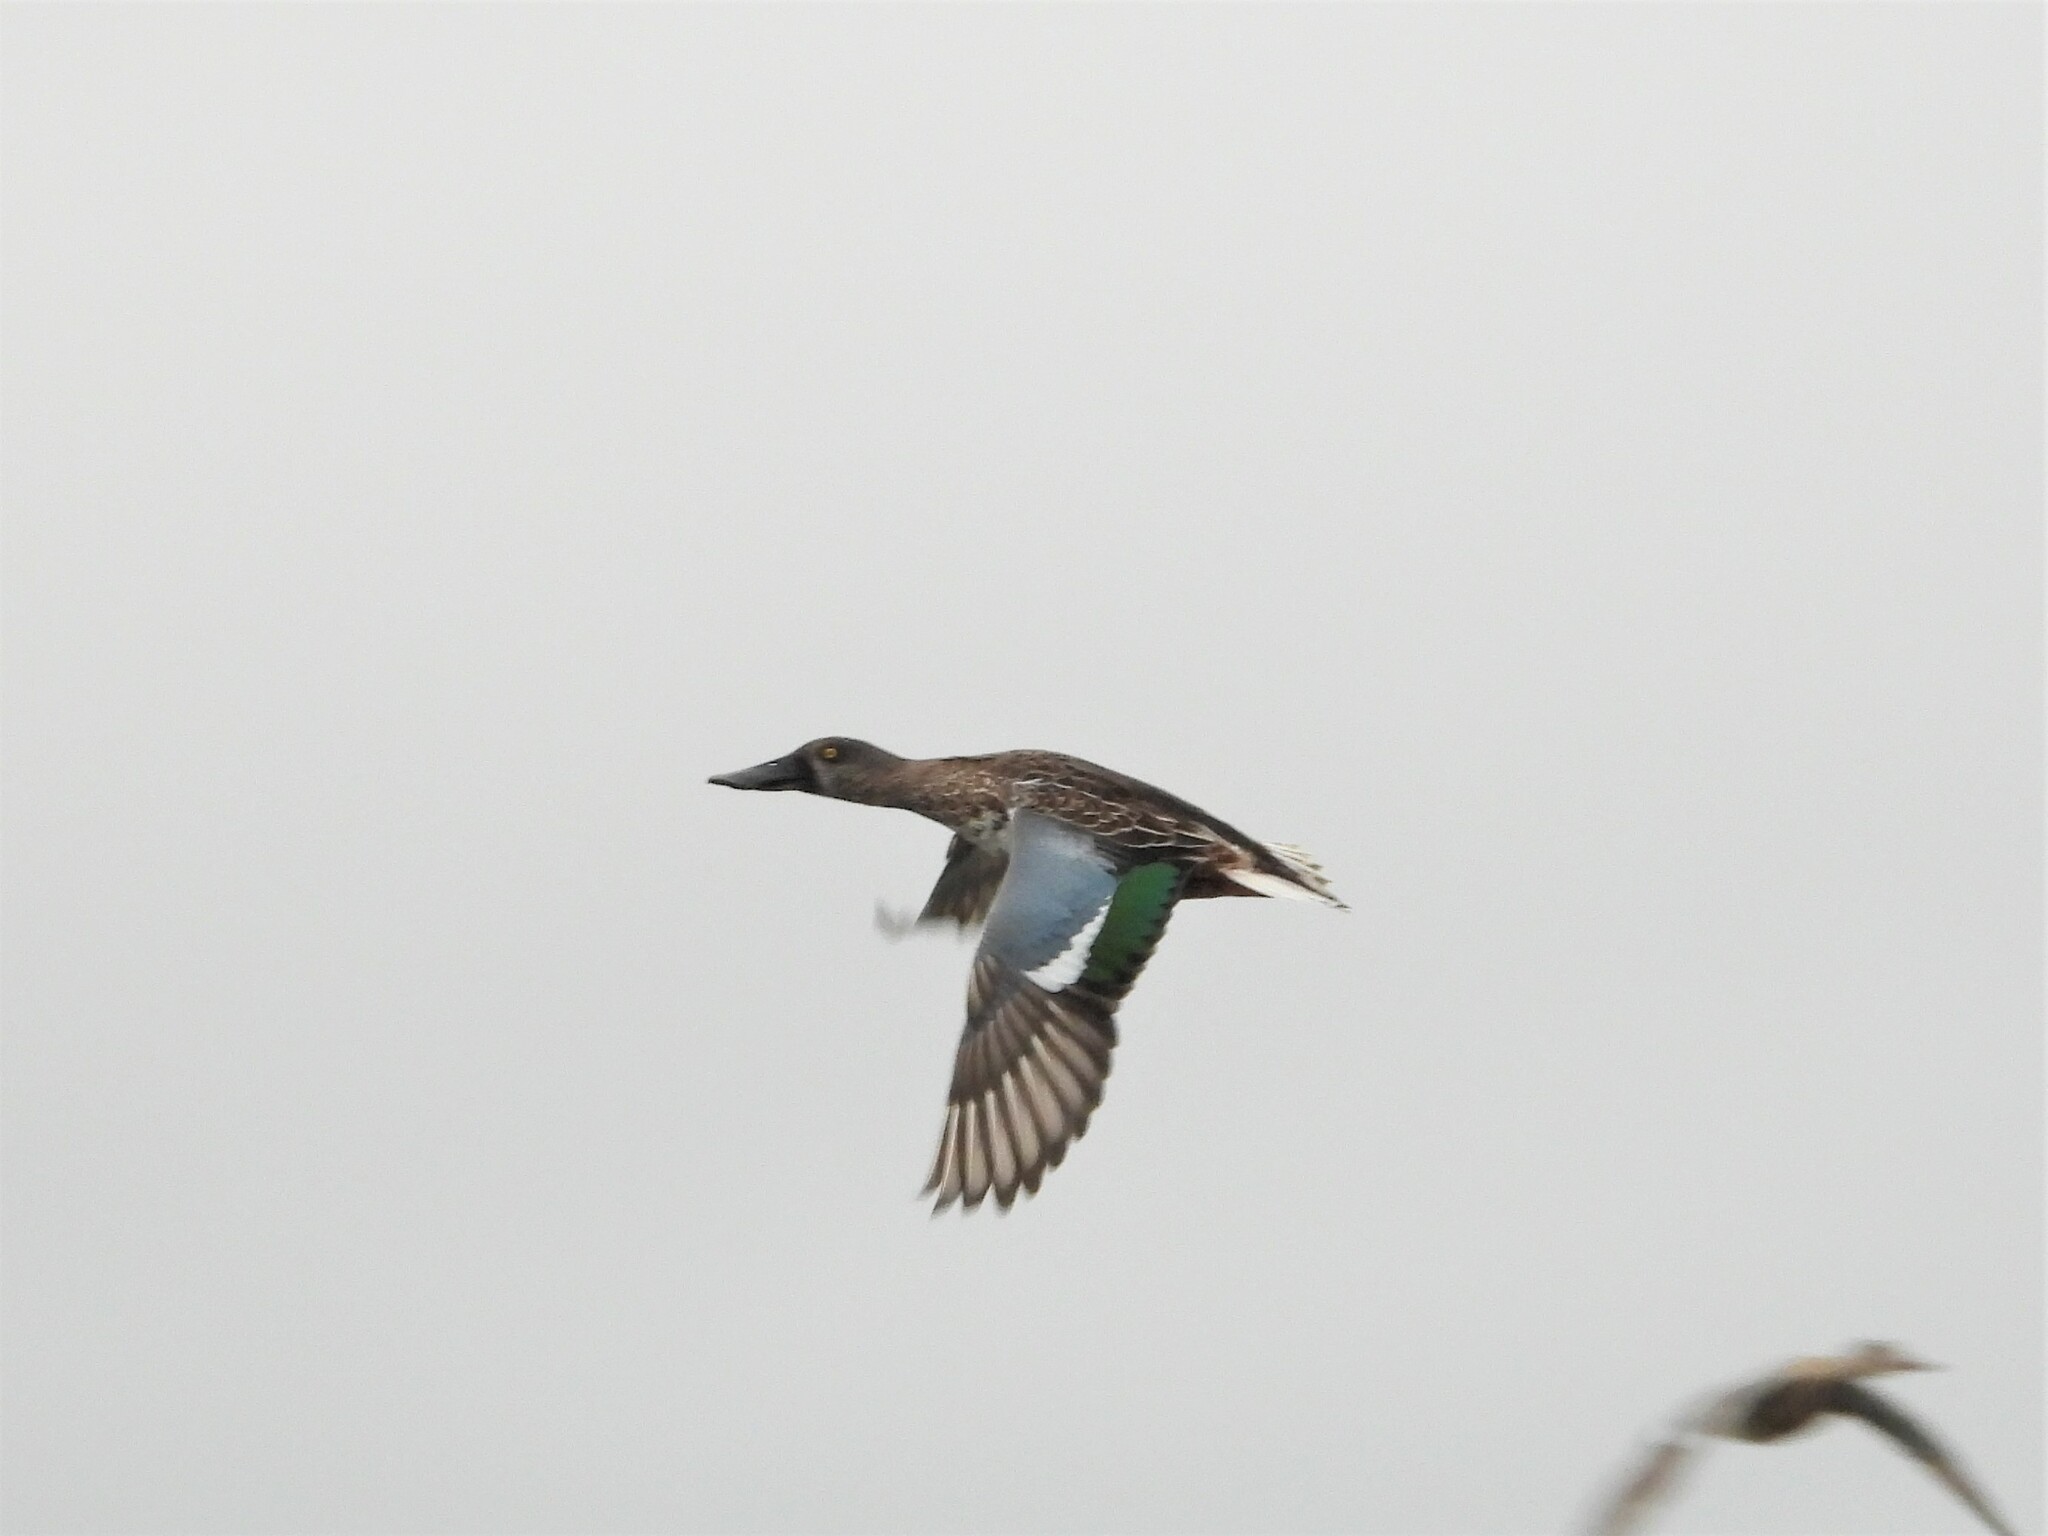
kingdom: Animalia
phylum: Chordata
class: Aves
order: Anseriformes
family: Anatidae
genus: Spatula
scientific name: Spatula clypeata
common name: Northern shoveler
